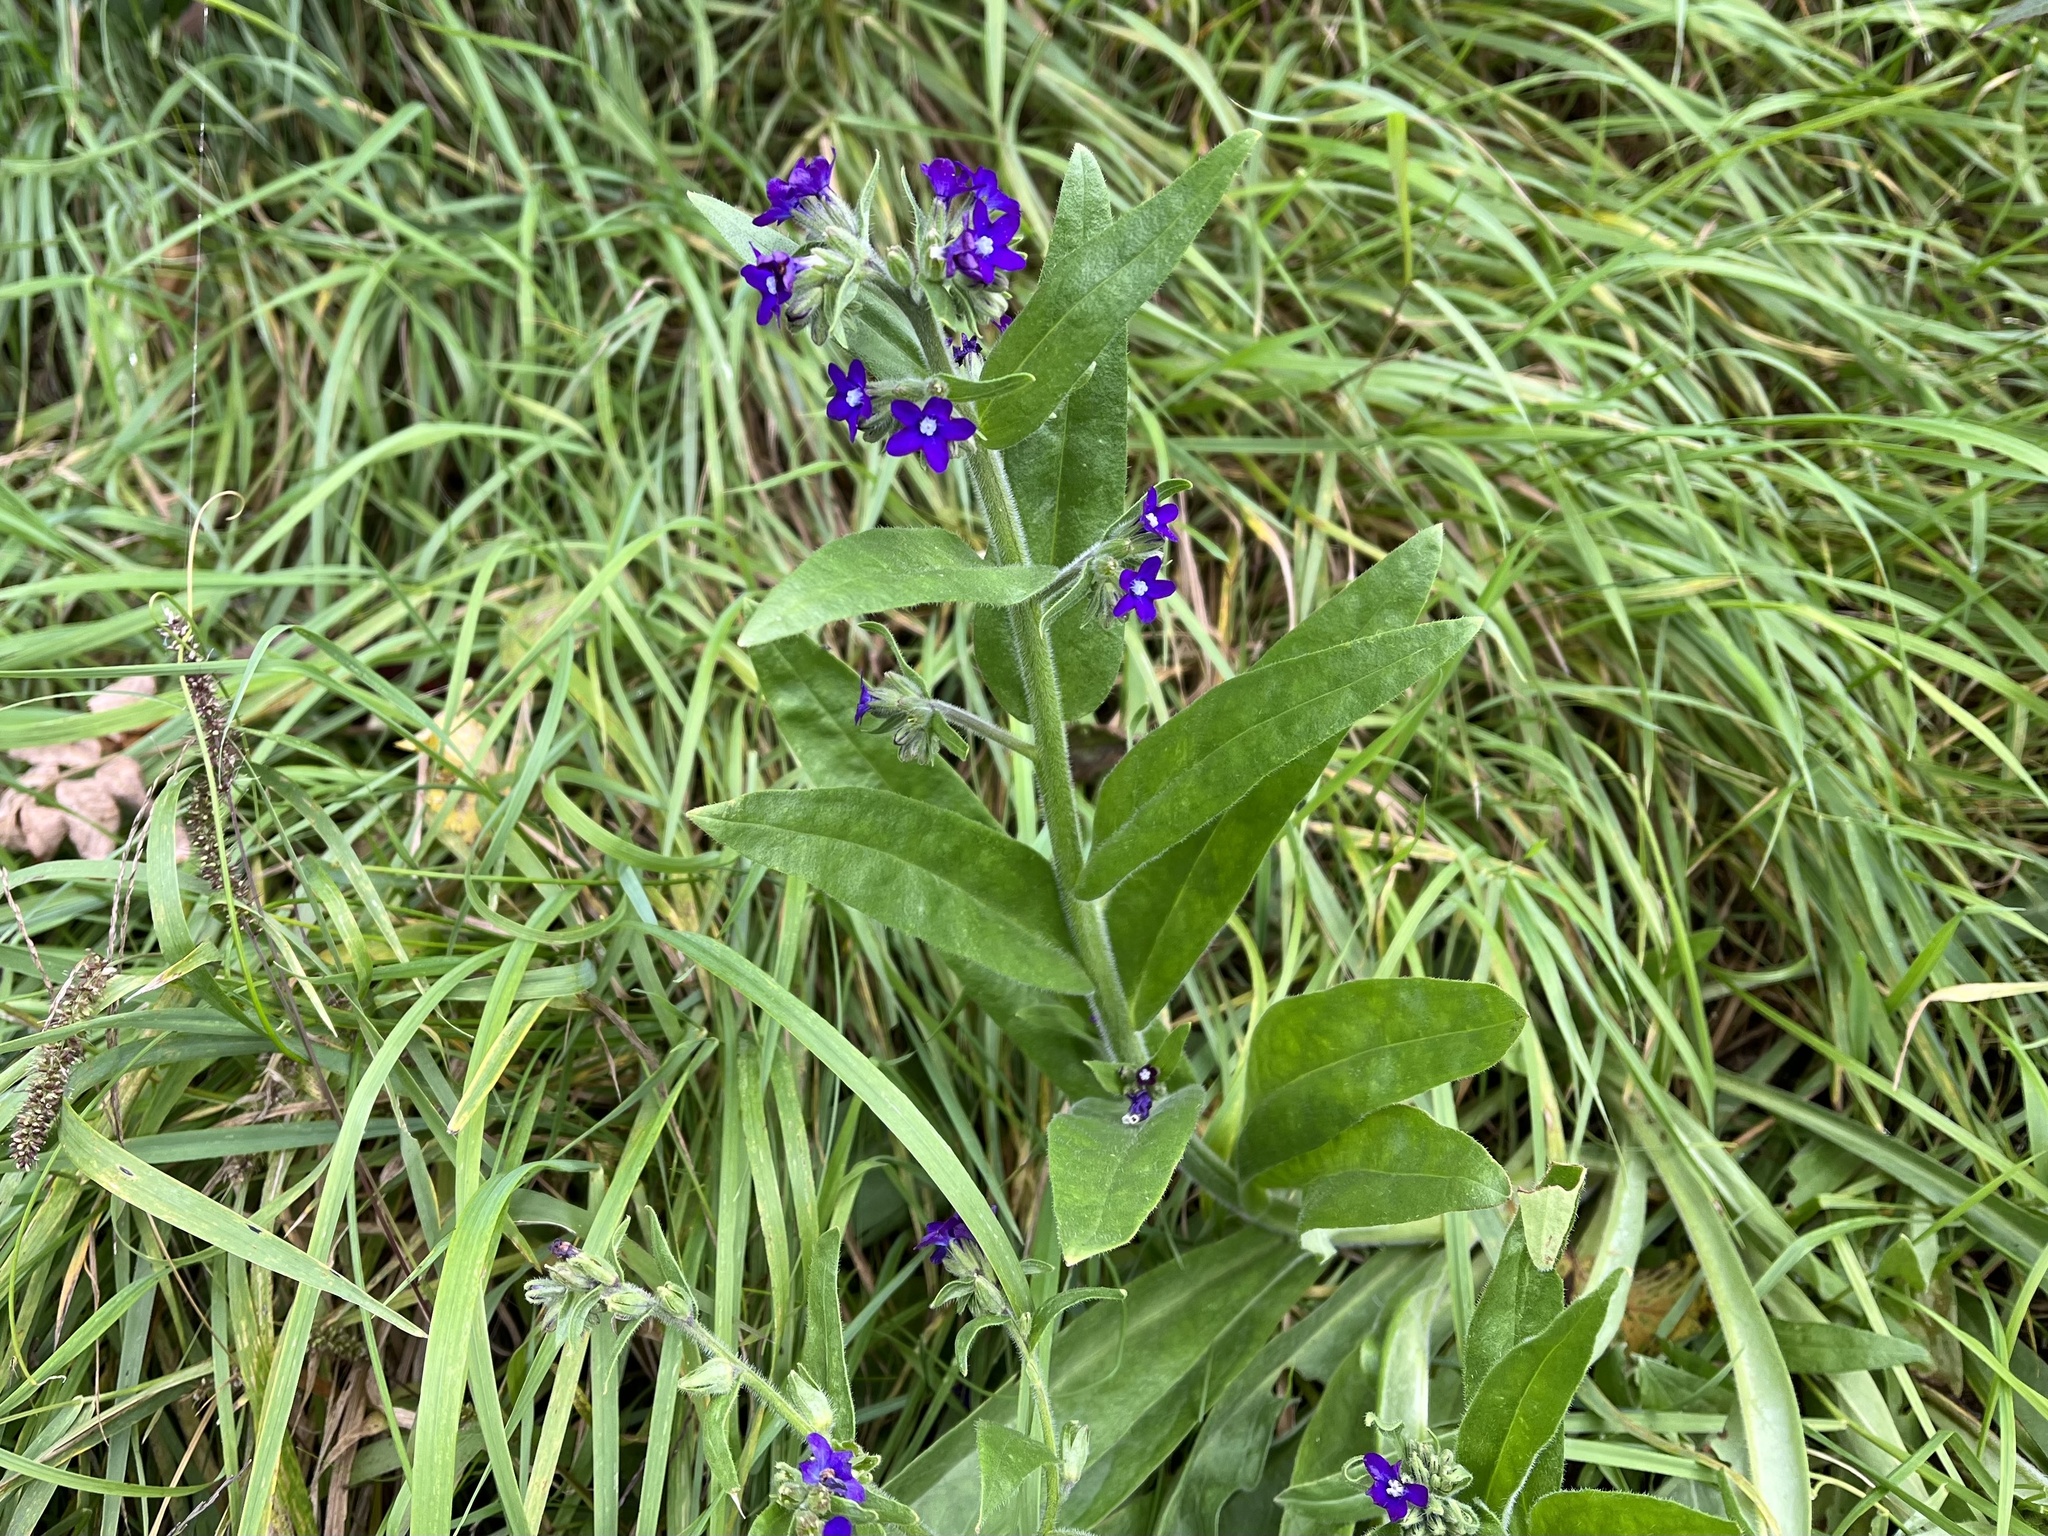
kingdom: Plantae
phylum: Tracheophyta
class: Magnoliopsida
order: Boraginales
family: Boraginaceae
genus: Anchusa
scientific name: Anchusa officinalis
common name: Alkanet
